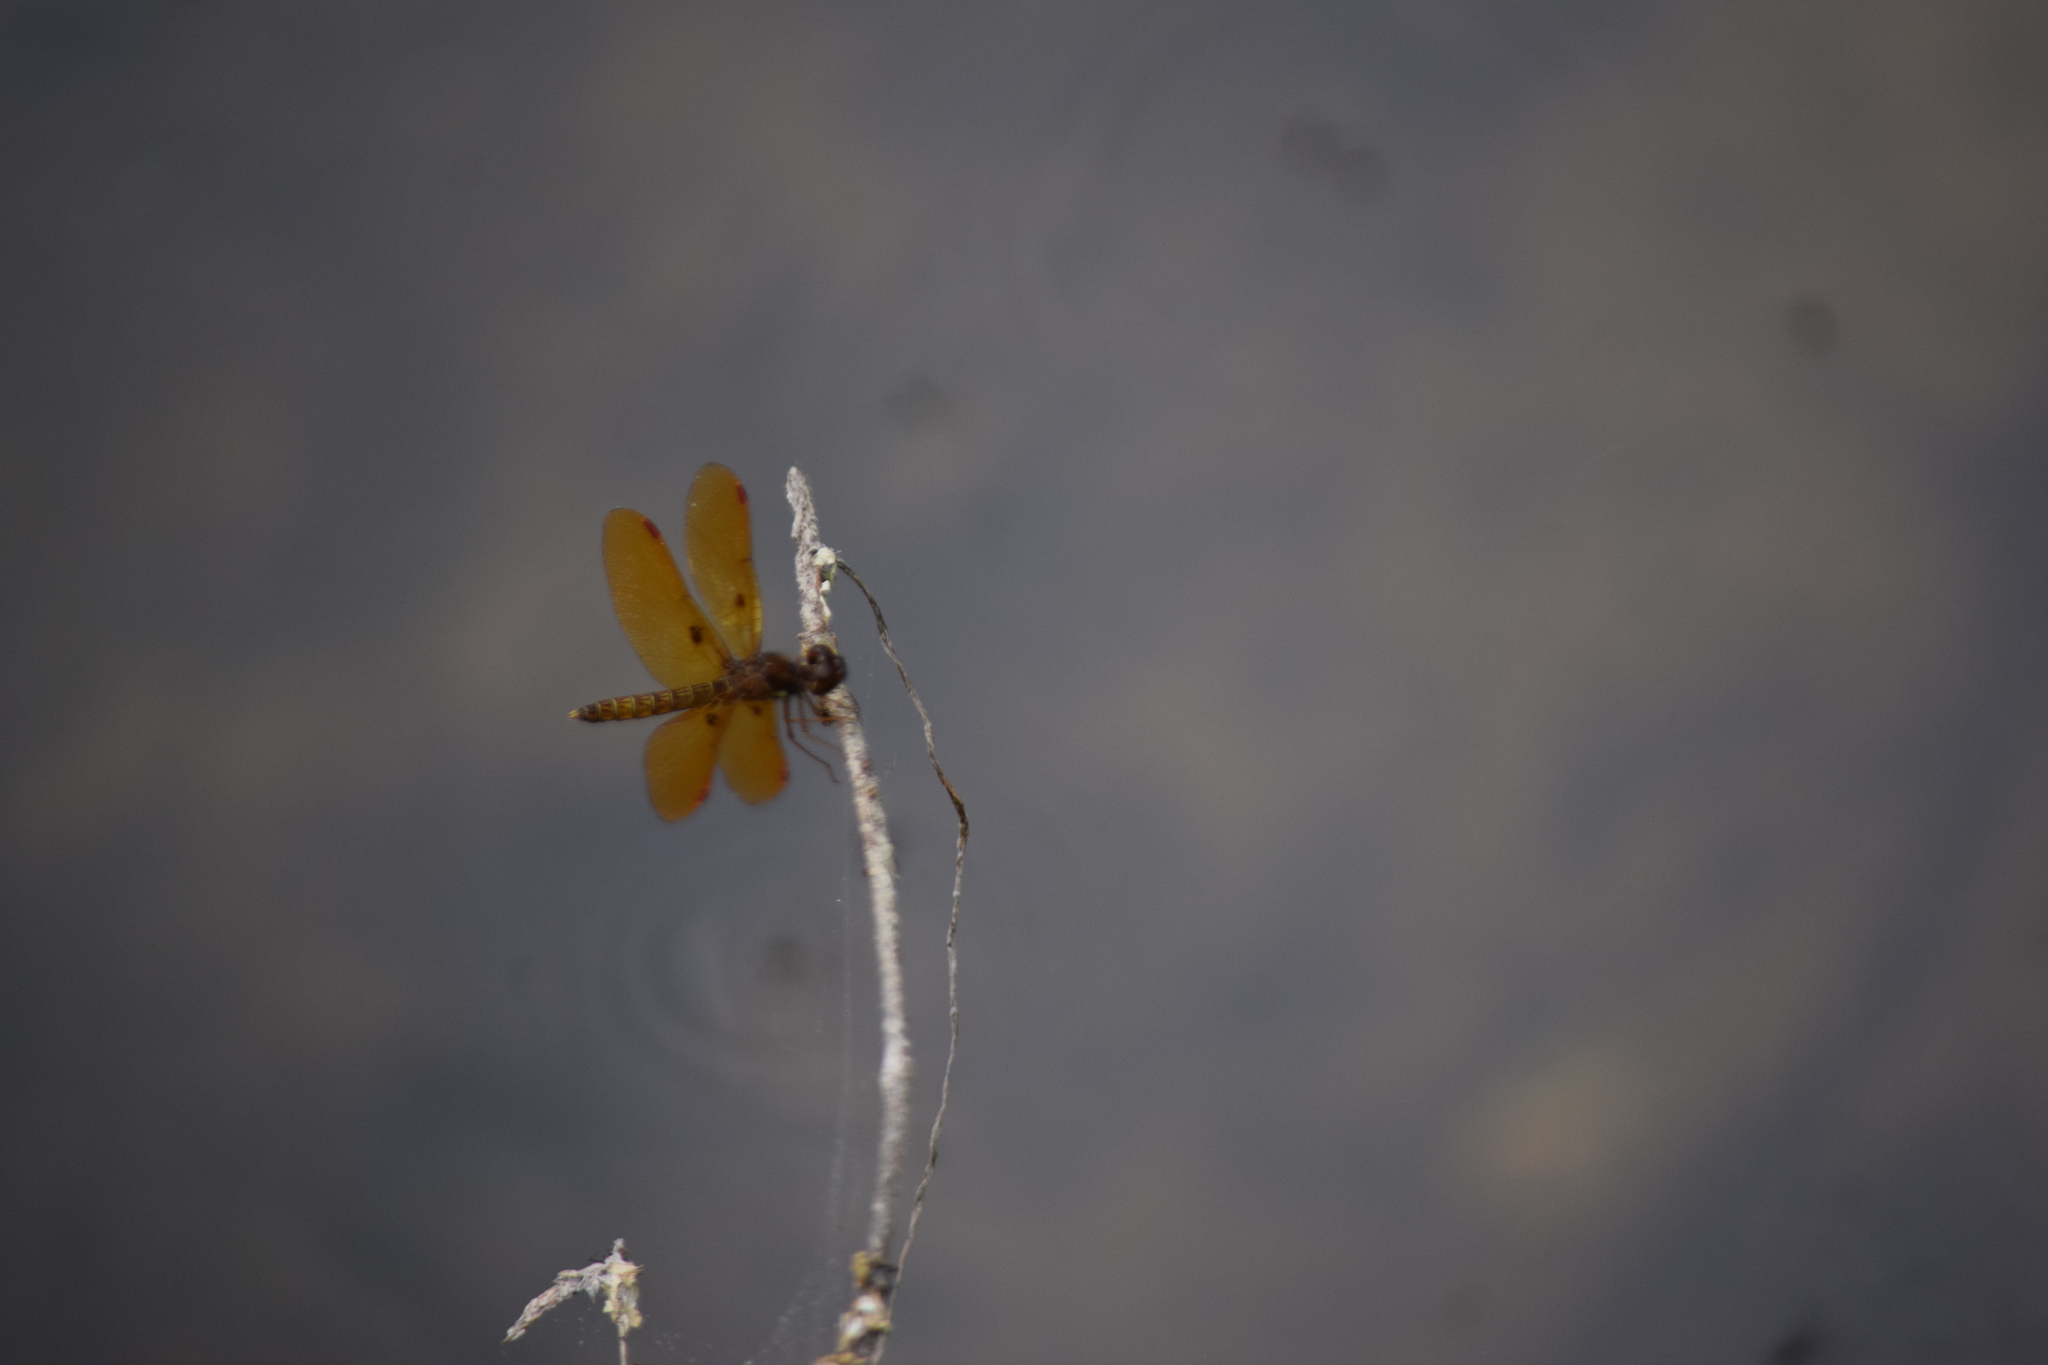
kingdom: Animalia
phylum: Arthropoda
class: Insecta
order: Odonata
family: Libellulidae
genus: Perithemis
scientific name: Perithemis tenera
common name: Eastern amberwing
